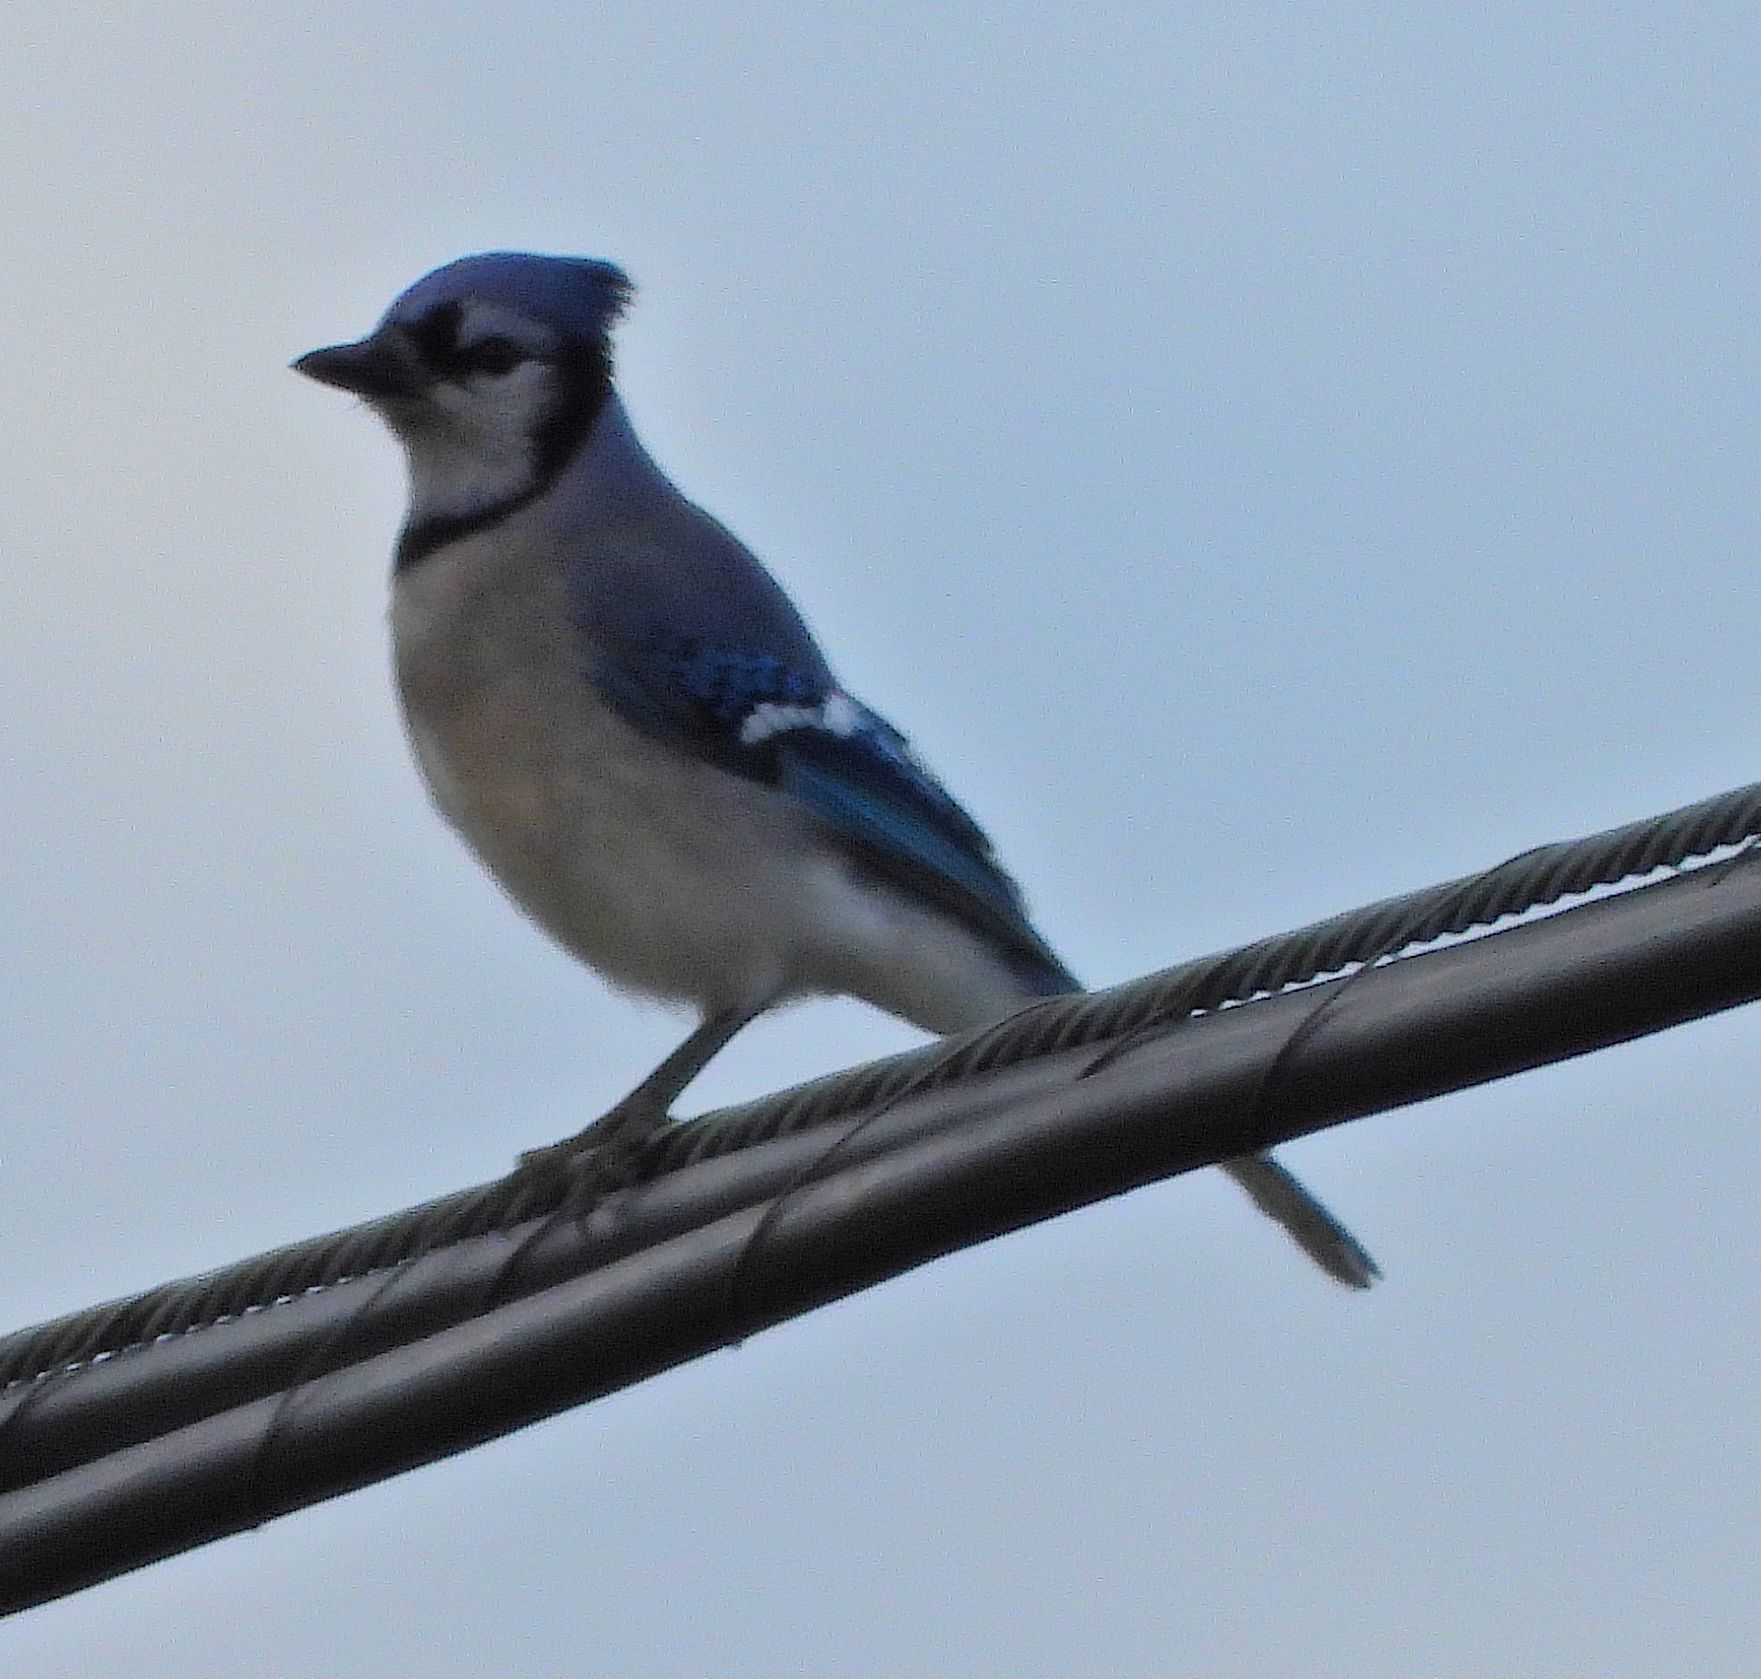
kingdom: Animalia
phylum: Chordata
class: Aves
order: Passeriformes
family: Corvidae
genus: Cyanocitta
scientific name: Cyanocitta cristata
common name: Blue jay
